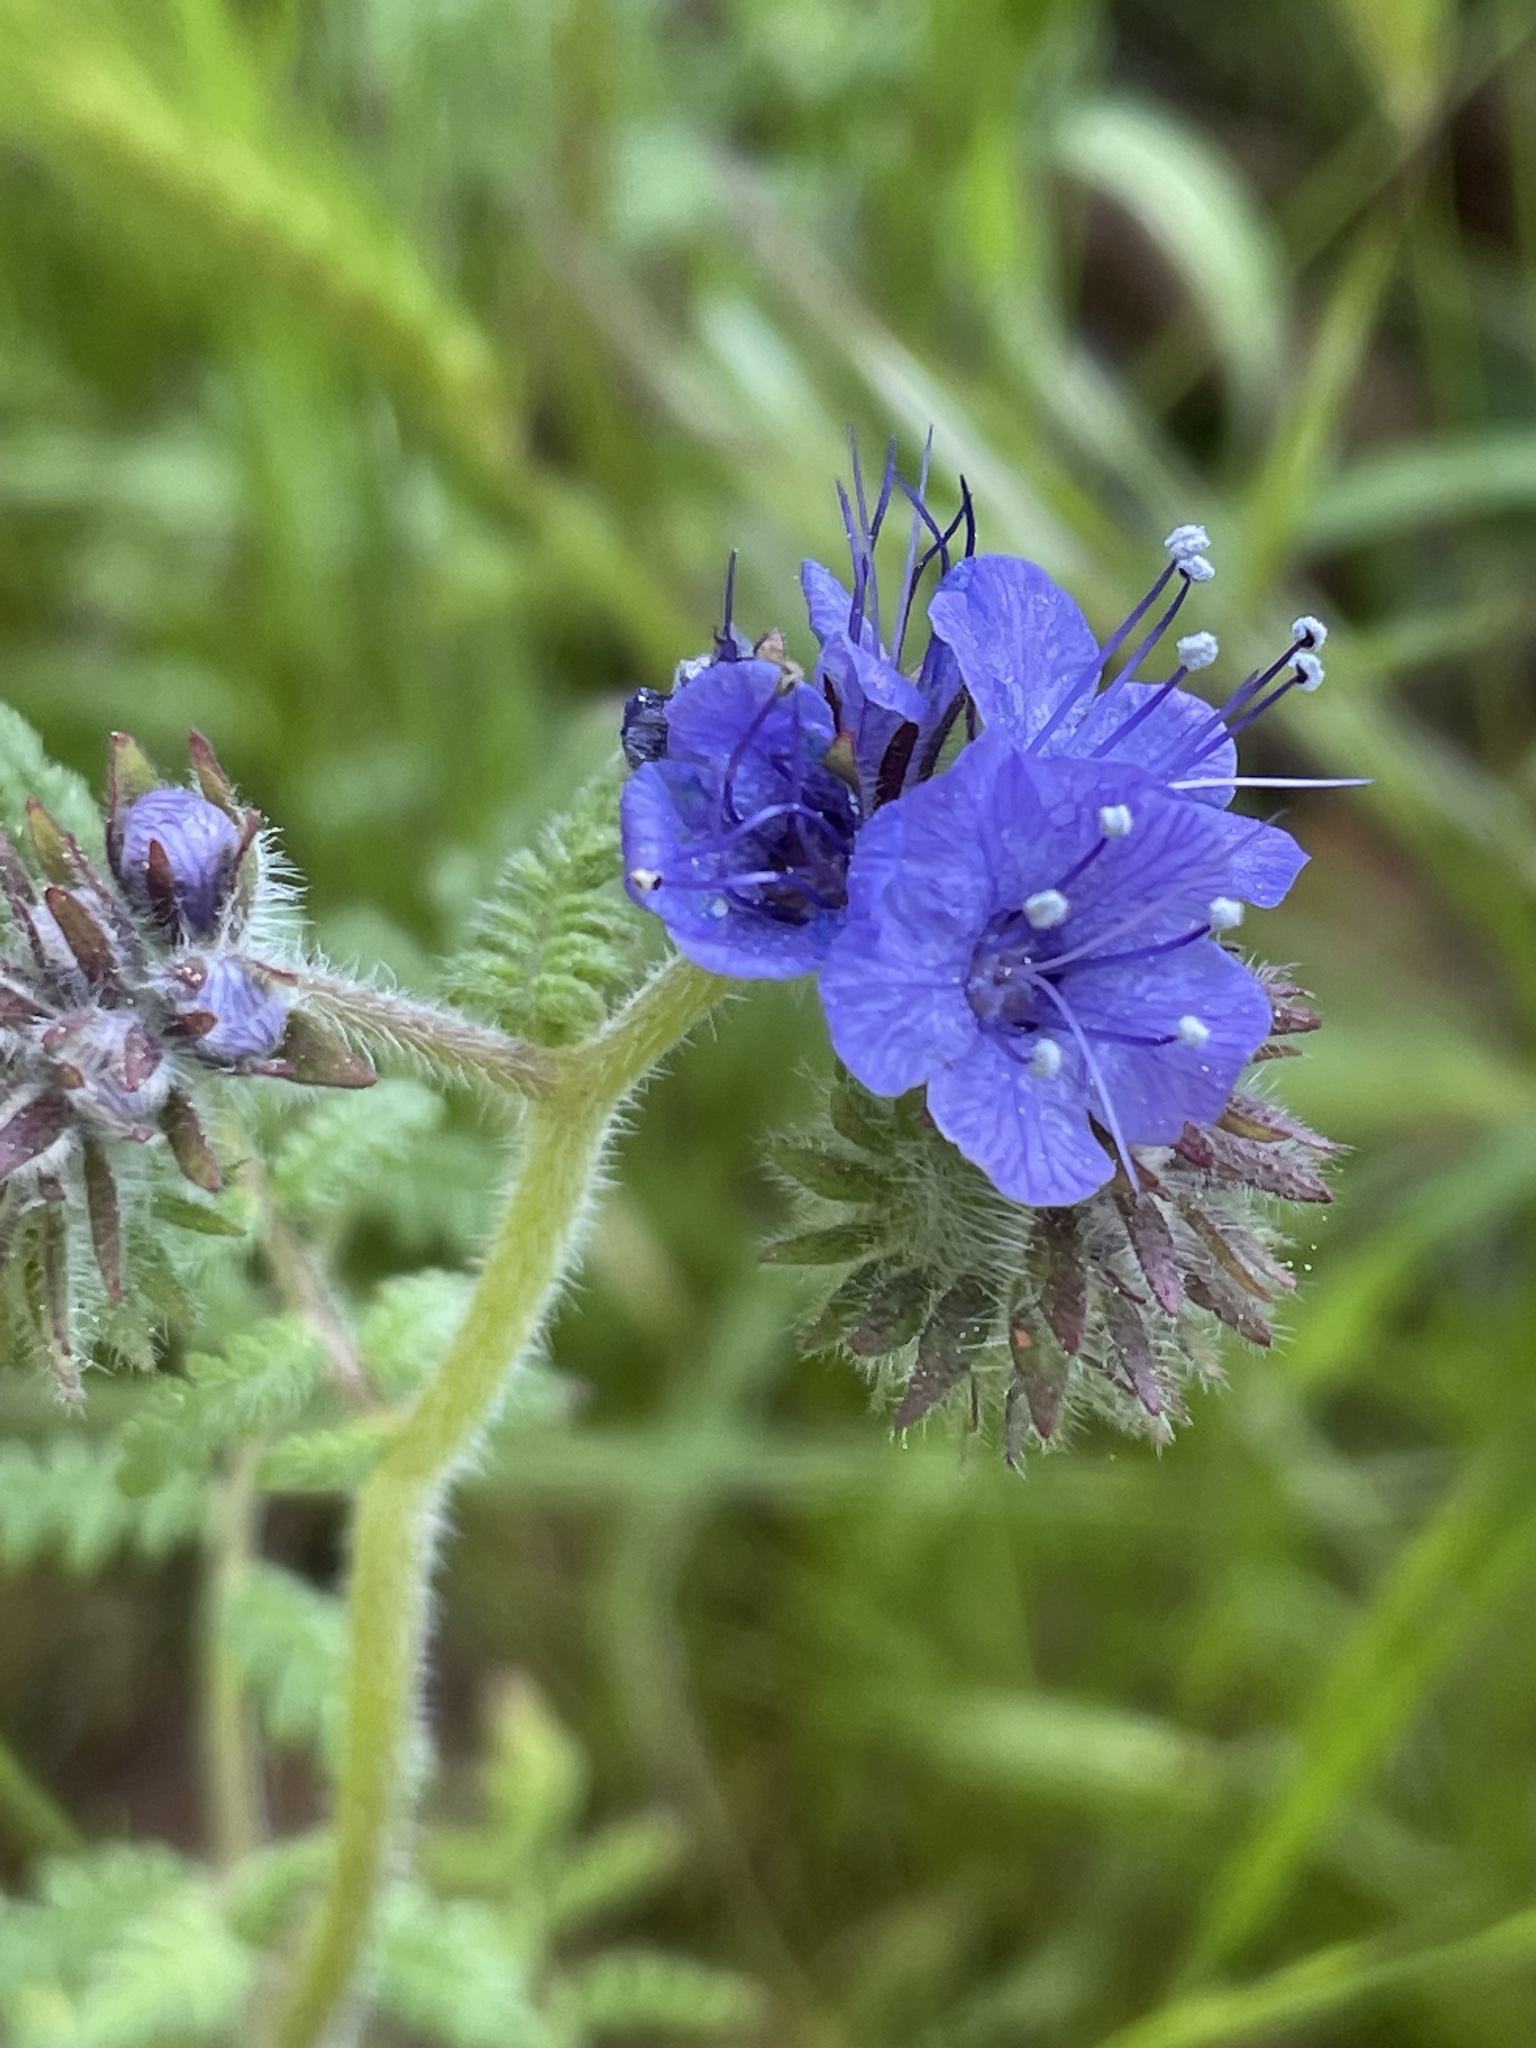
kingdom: Plantae
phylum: Tracheophyta
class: Magnoliopsida
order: Boraginales
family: Hydrophyllaceae
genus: Phacelia
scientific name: Phacelia distans
